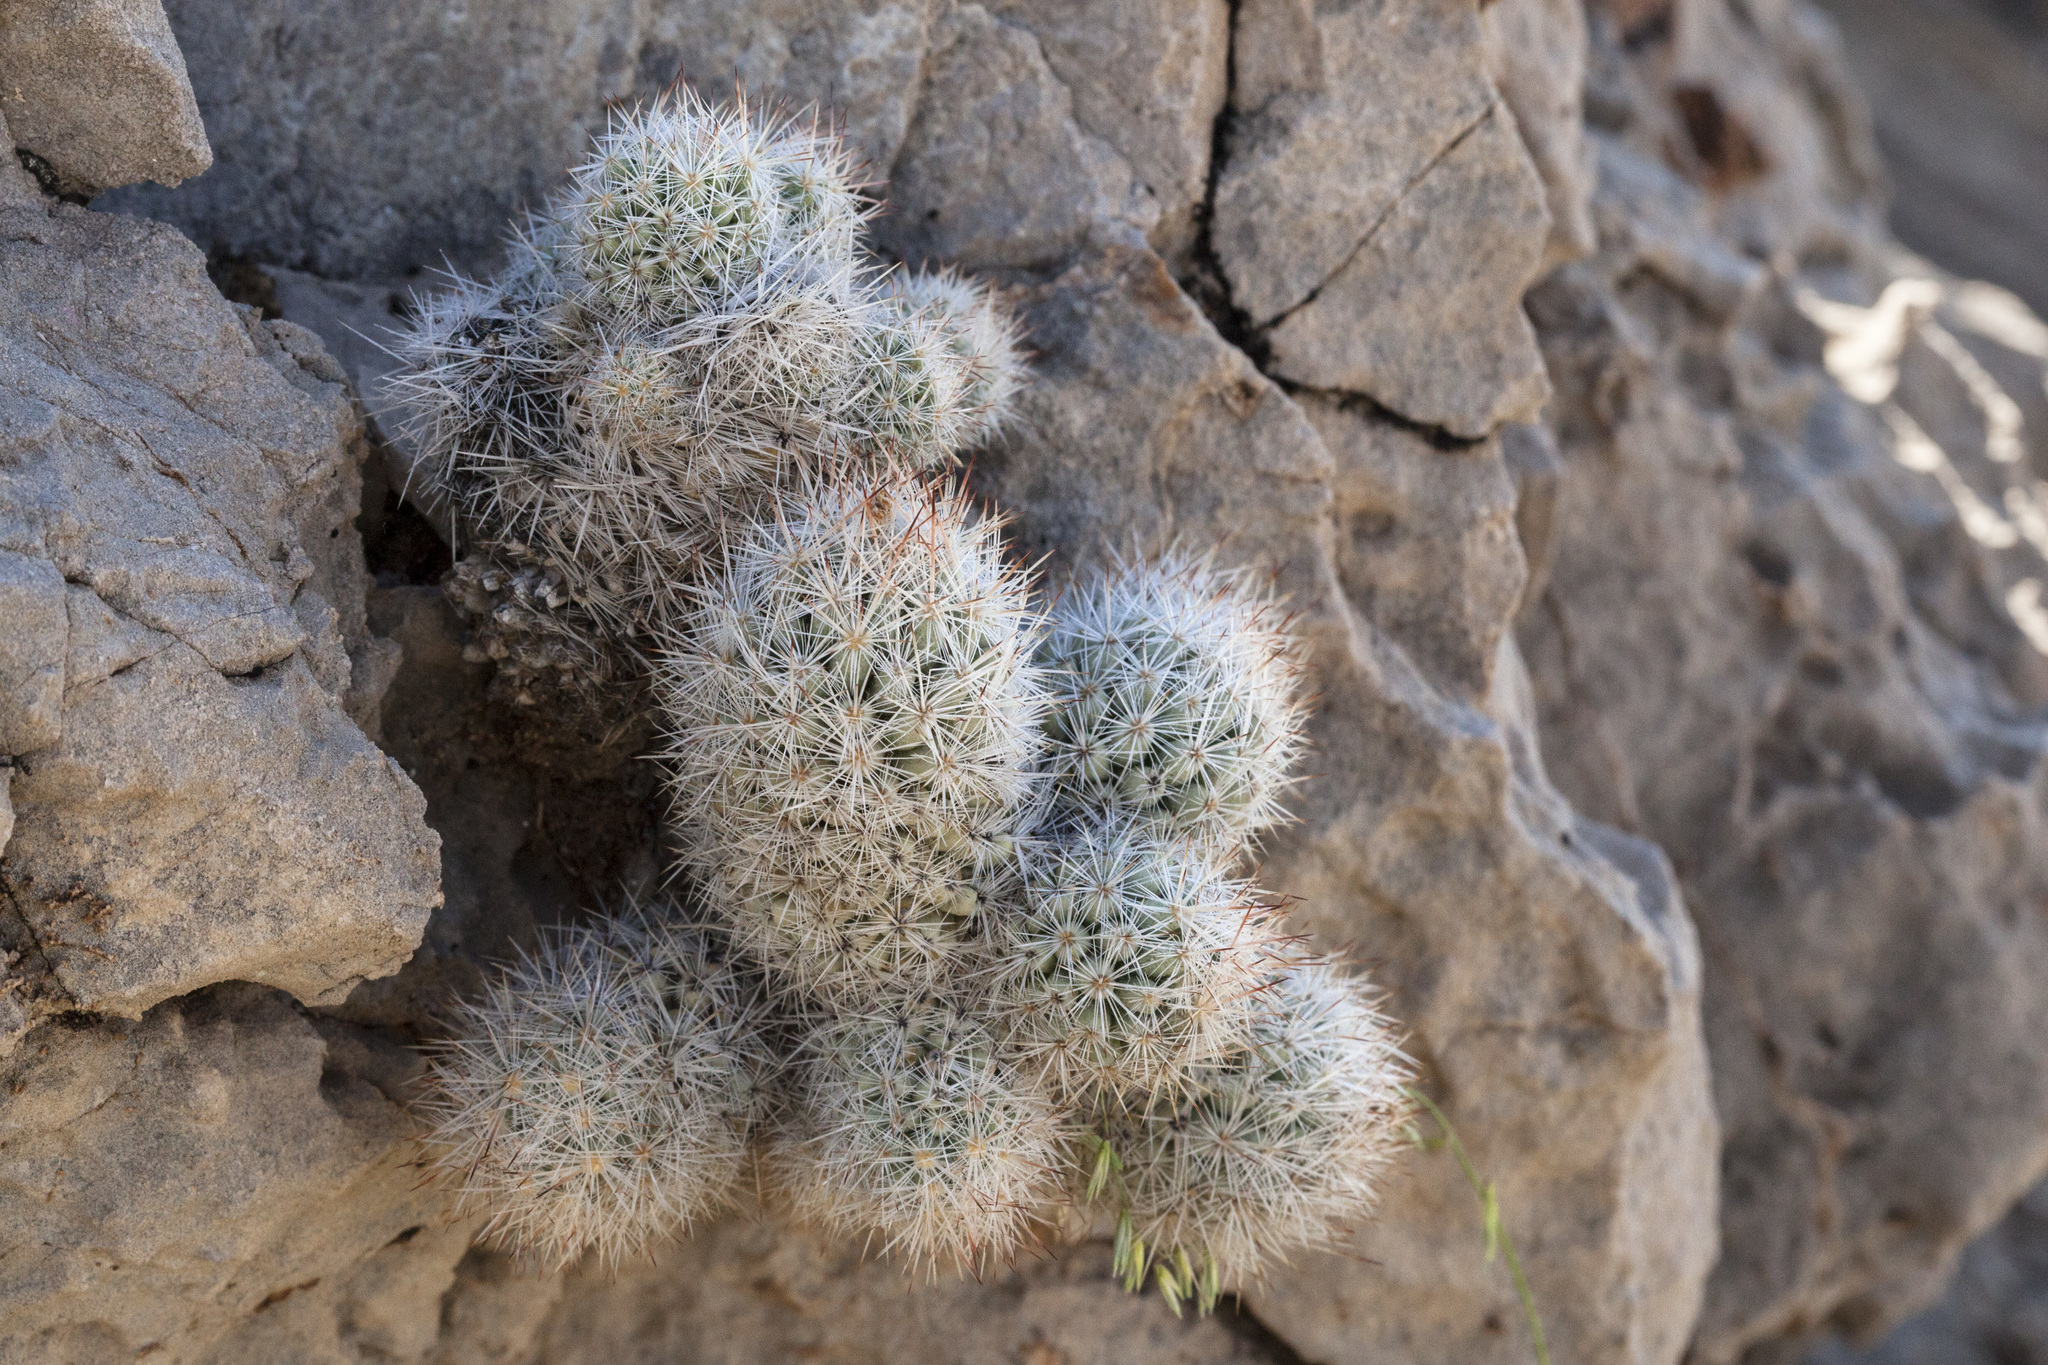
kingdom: Plantae
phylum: Tracheophyta
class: Magnoliopsida
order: Caryophyllales
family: Cactaceae
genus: Pelecyphora
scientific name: Pelecyphora sneedii
